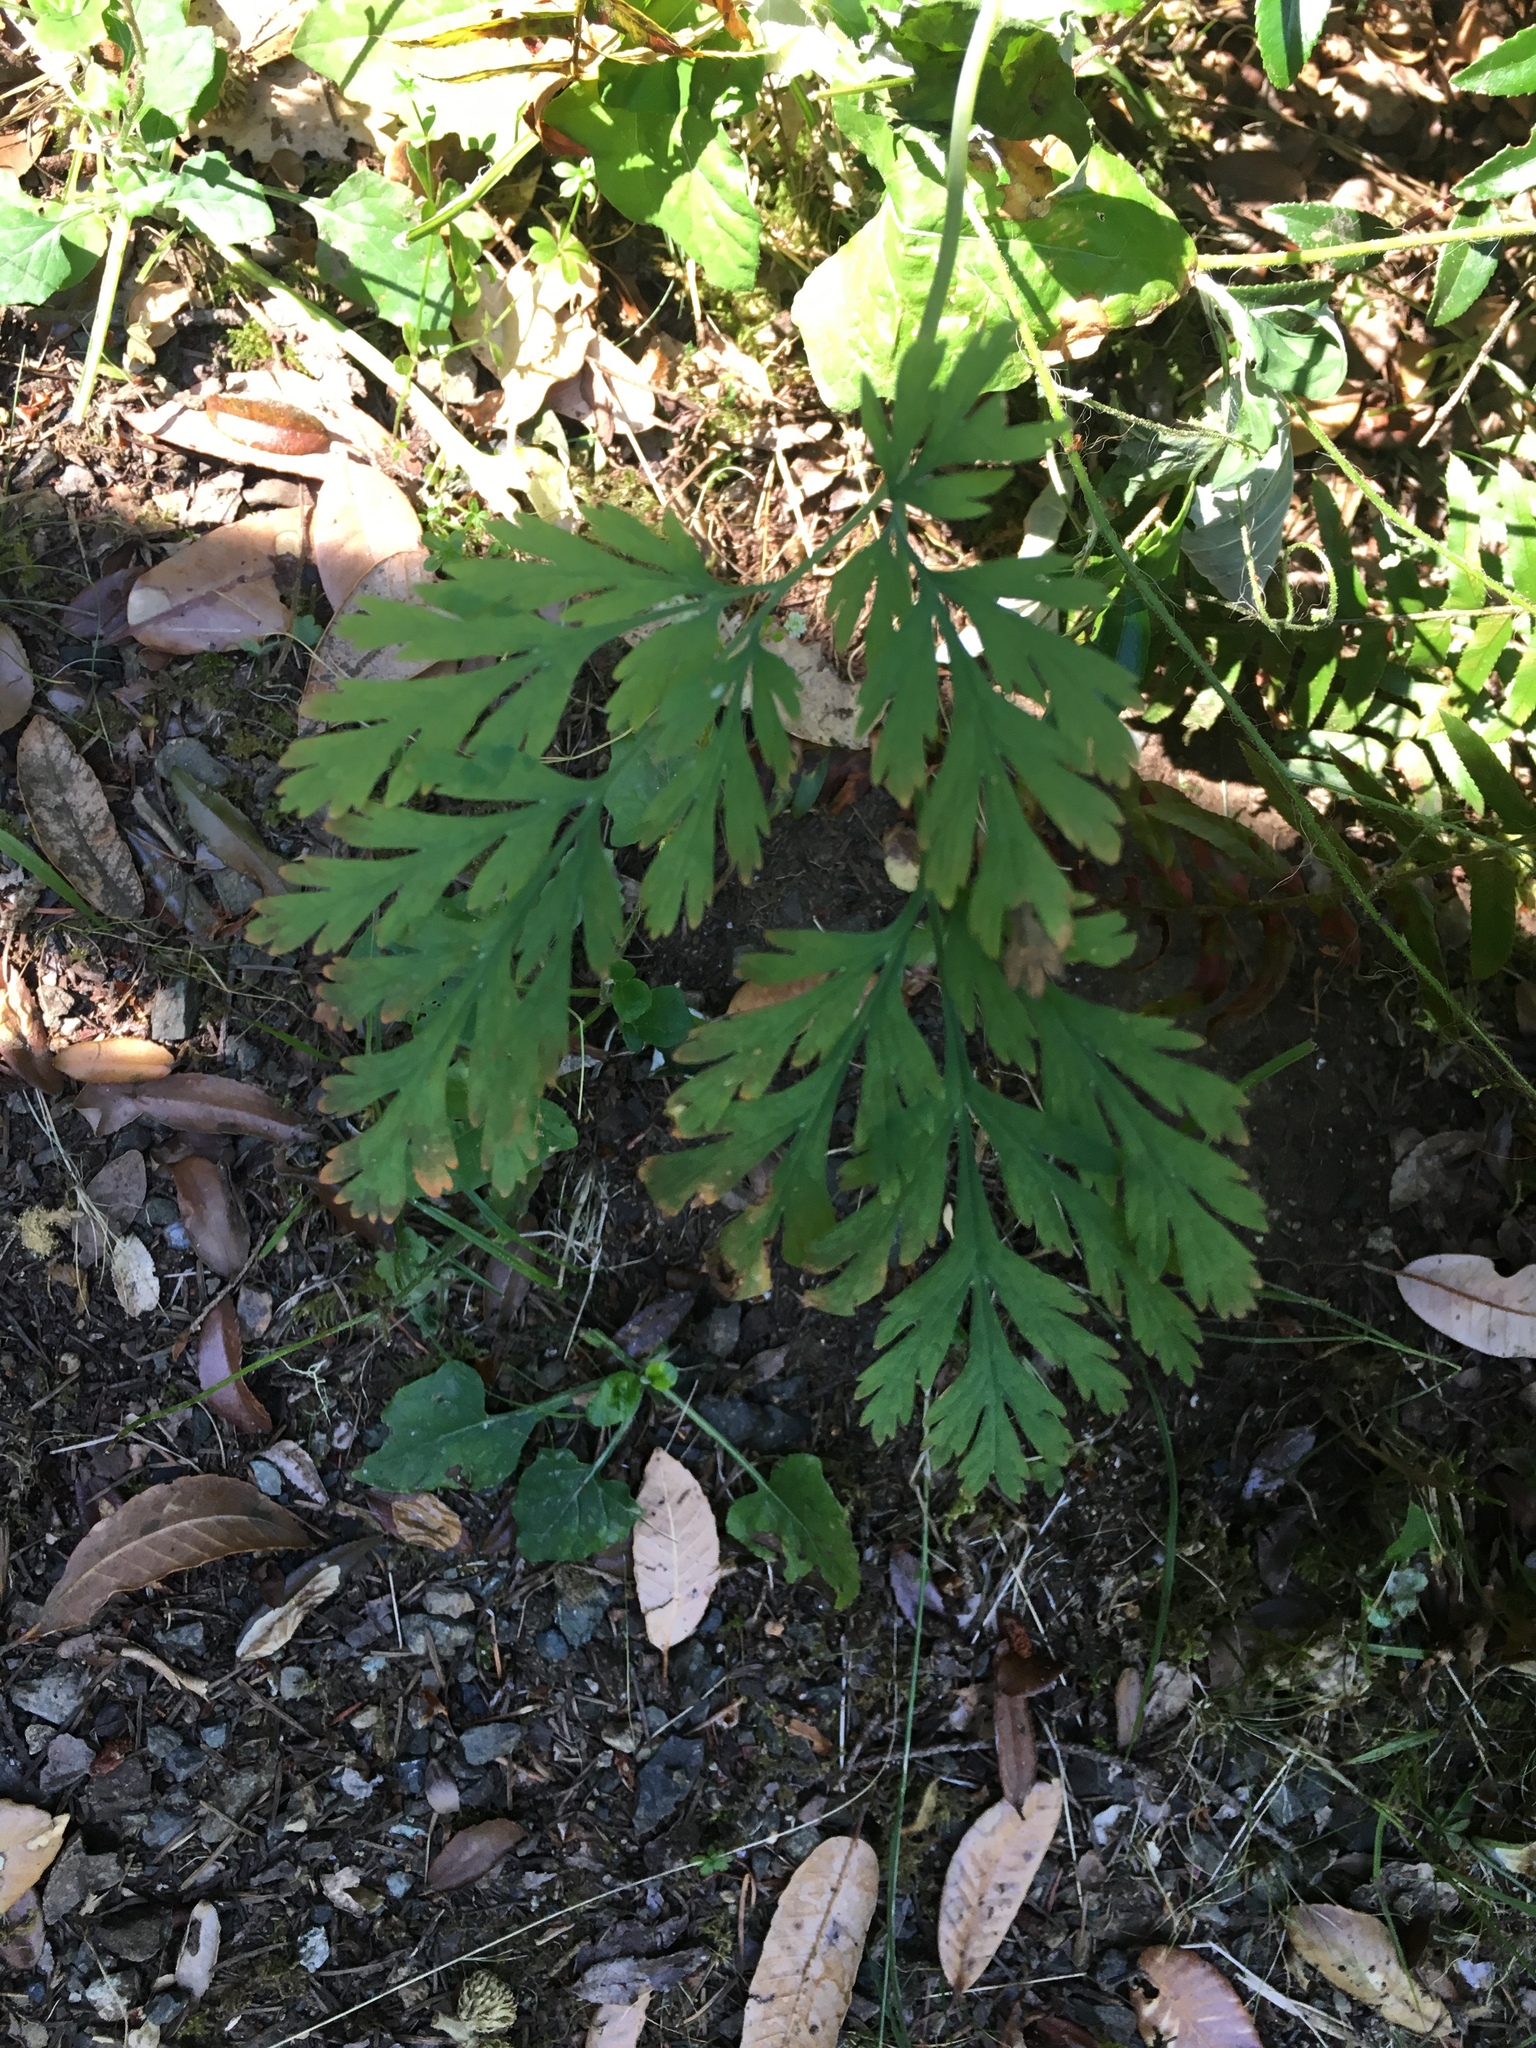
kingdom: Plantae
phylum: Tracheophyta
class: Magnoliopsida
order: Ranunculales
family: Papaveraceae
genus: Dicentra
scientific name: Dicentra formosa
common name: Bleeding-heart
